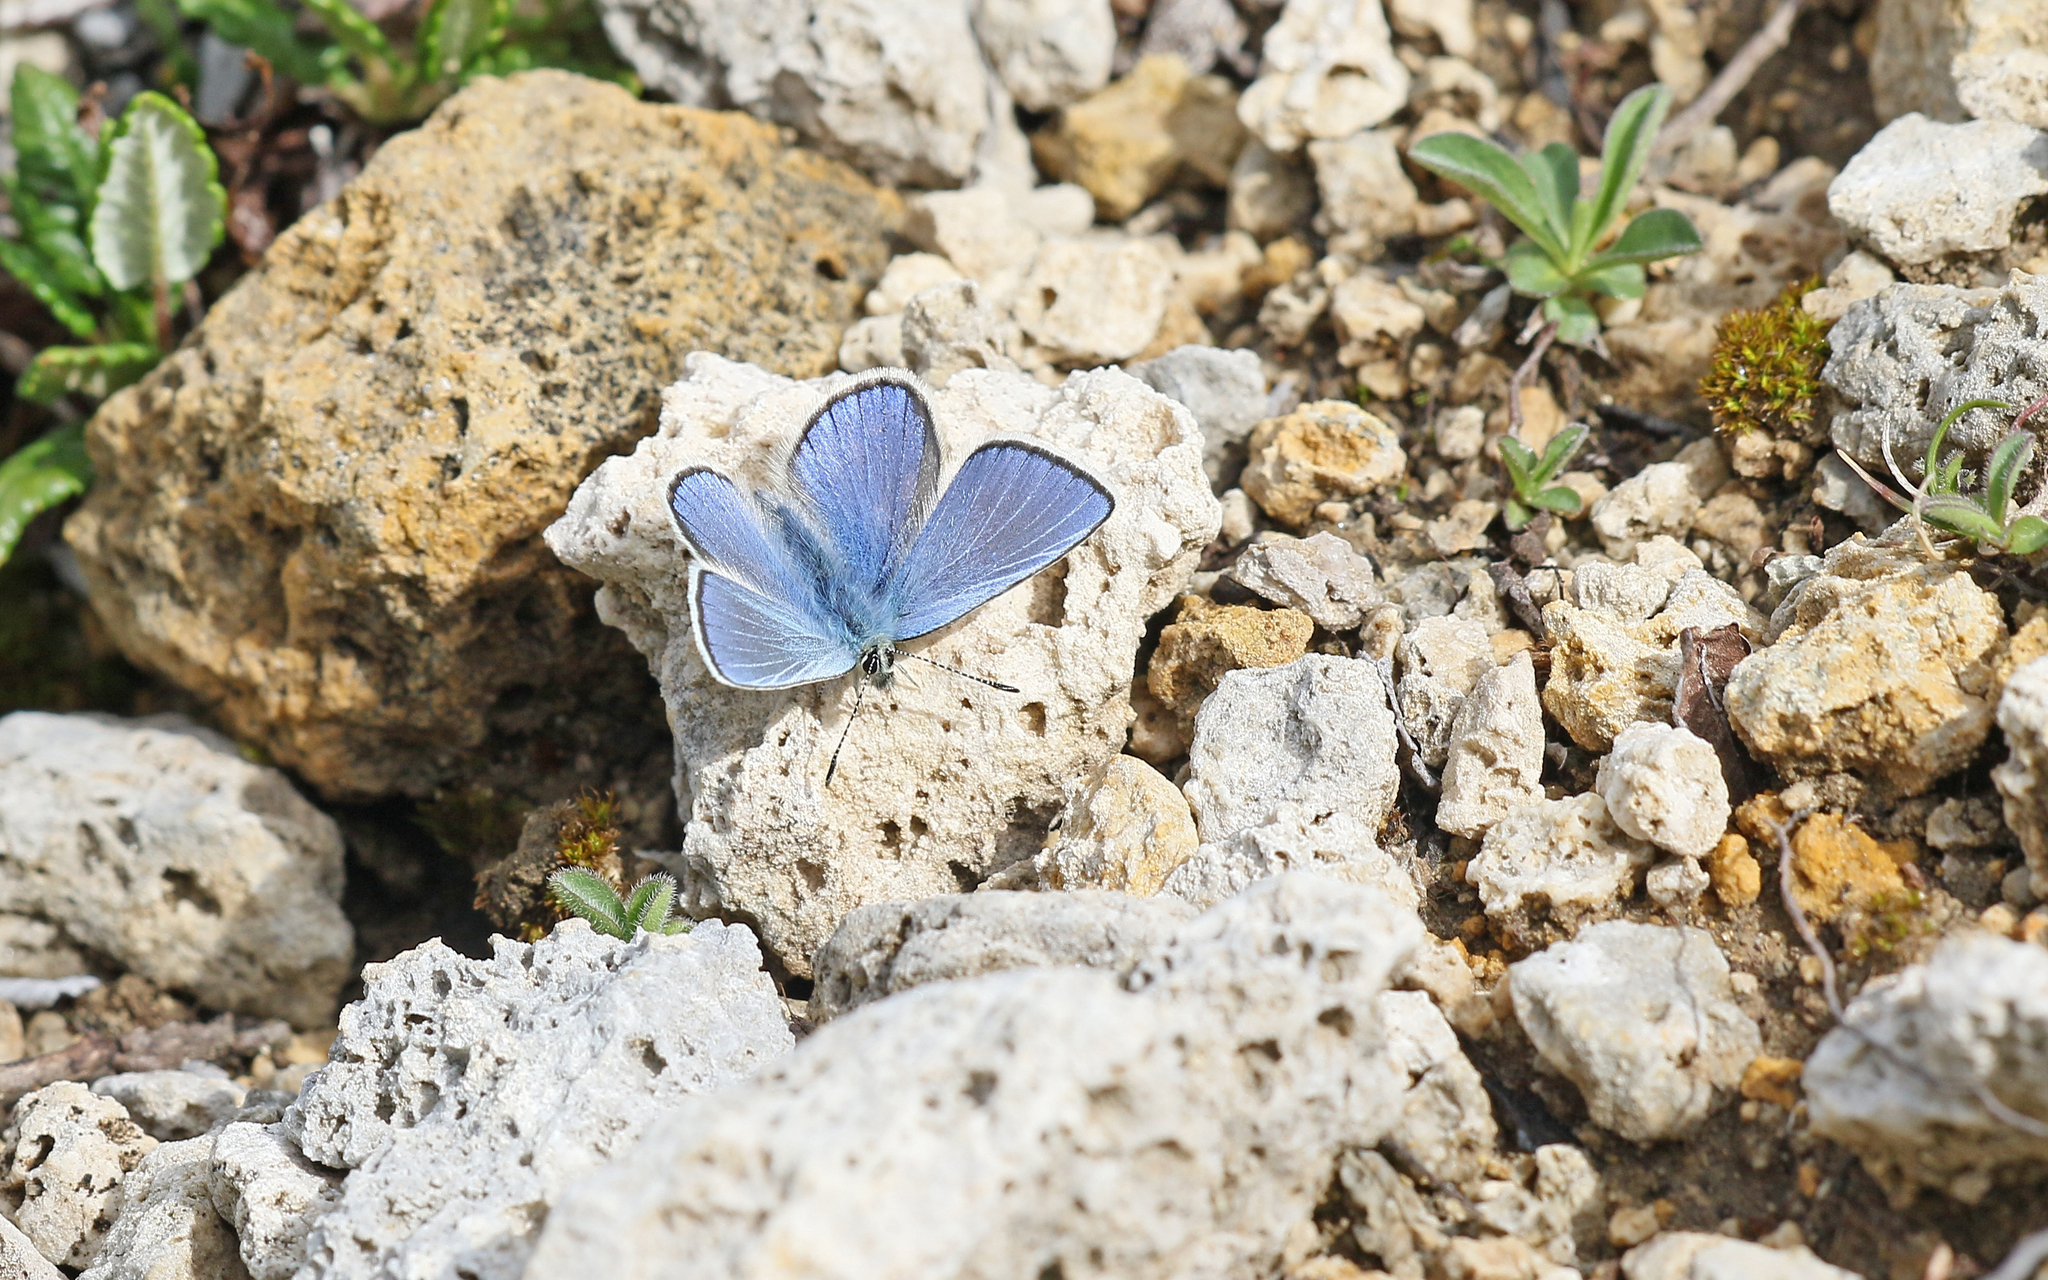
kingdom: Animalia
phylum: Arthropoda
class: Insecta
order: Lepidoptera
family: Lycaenidae
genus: Albulina
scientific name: Albulina orbitulus
